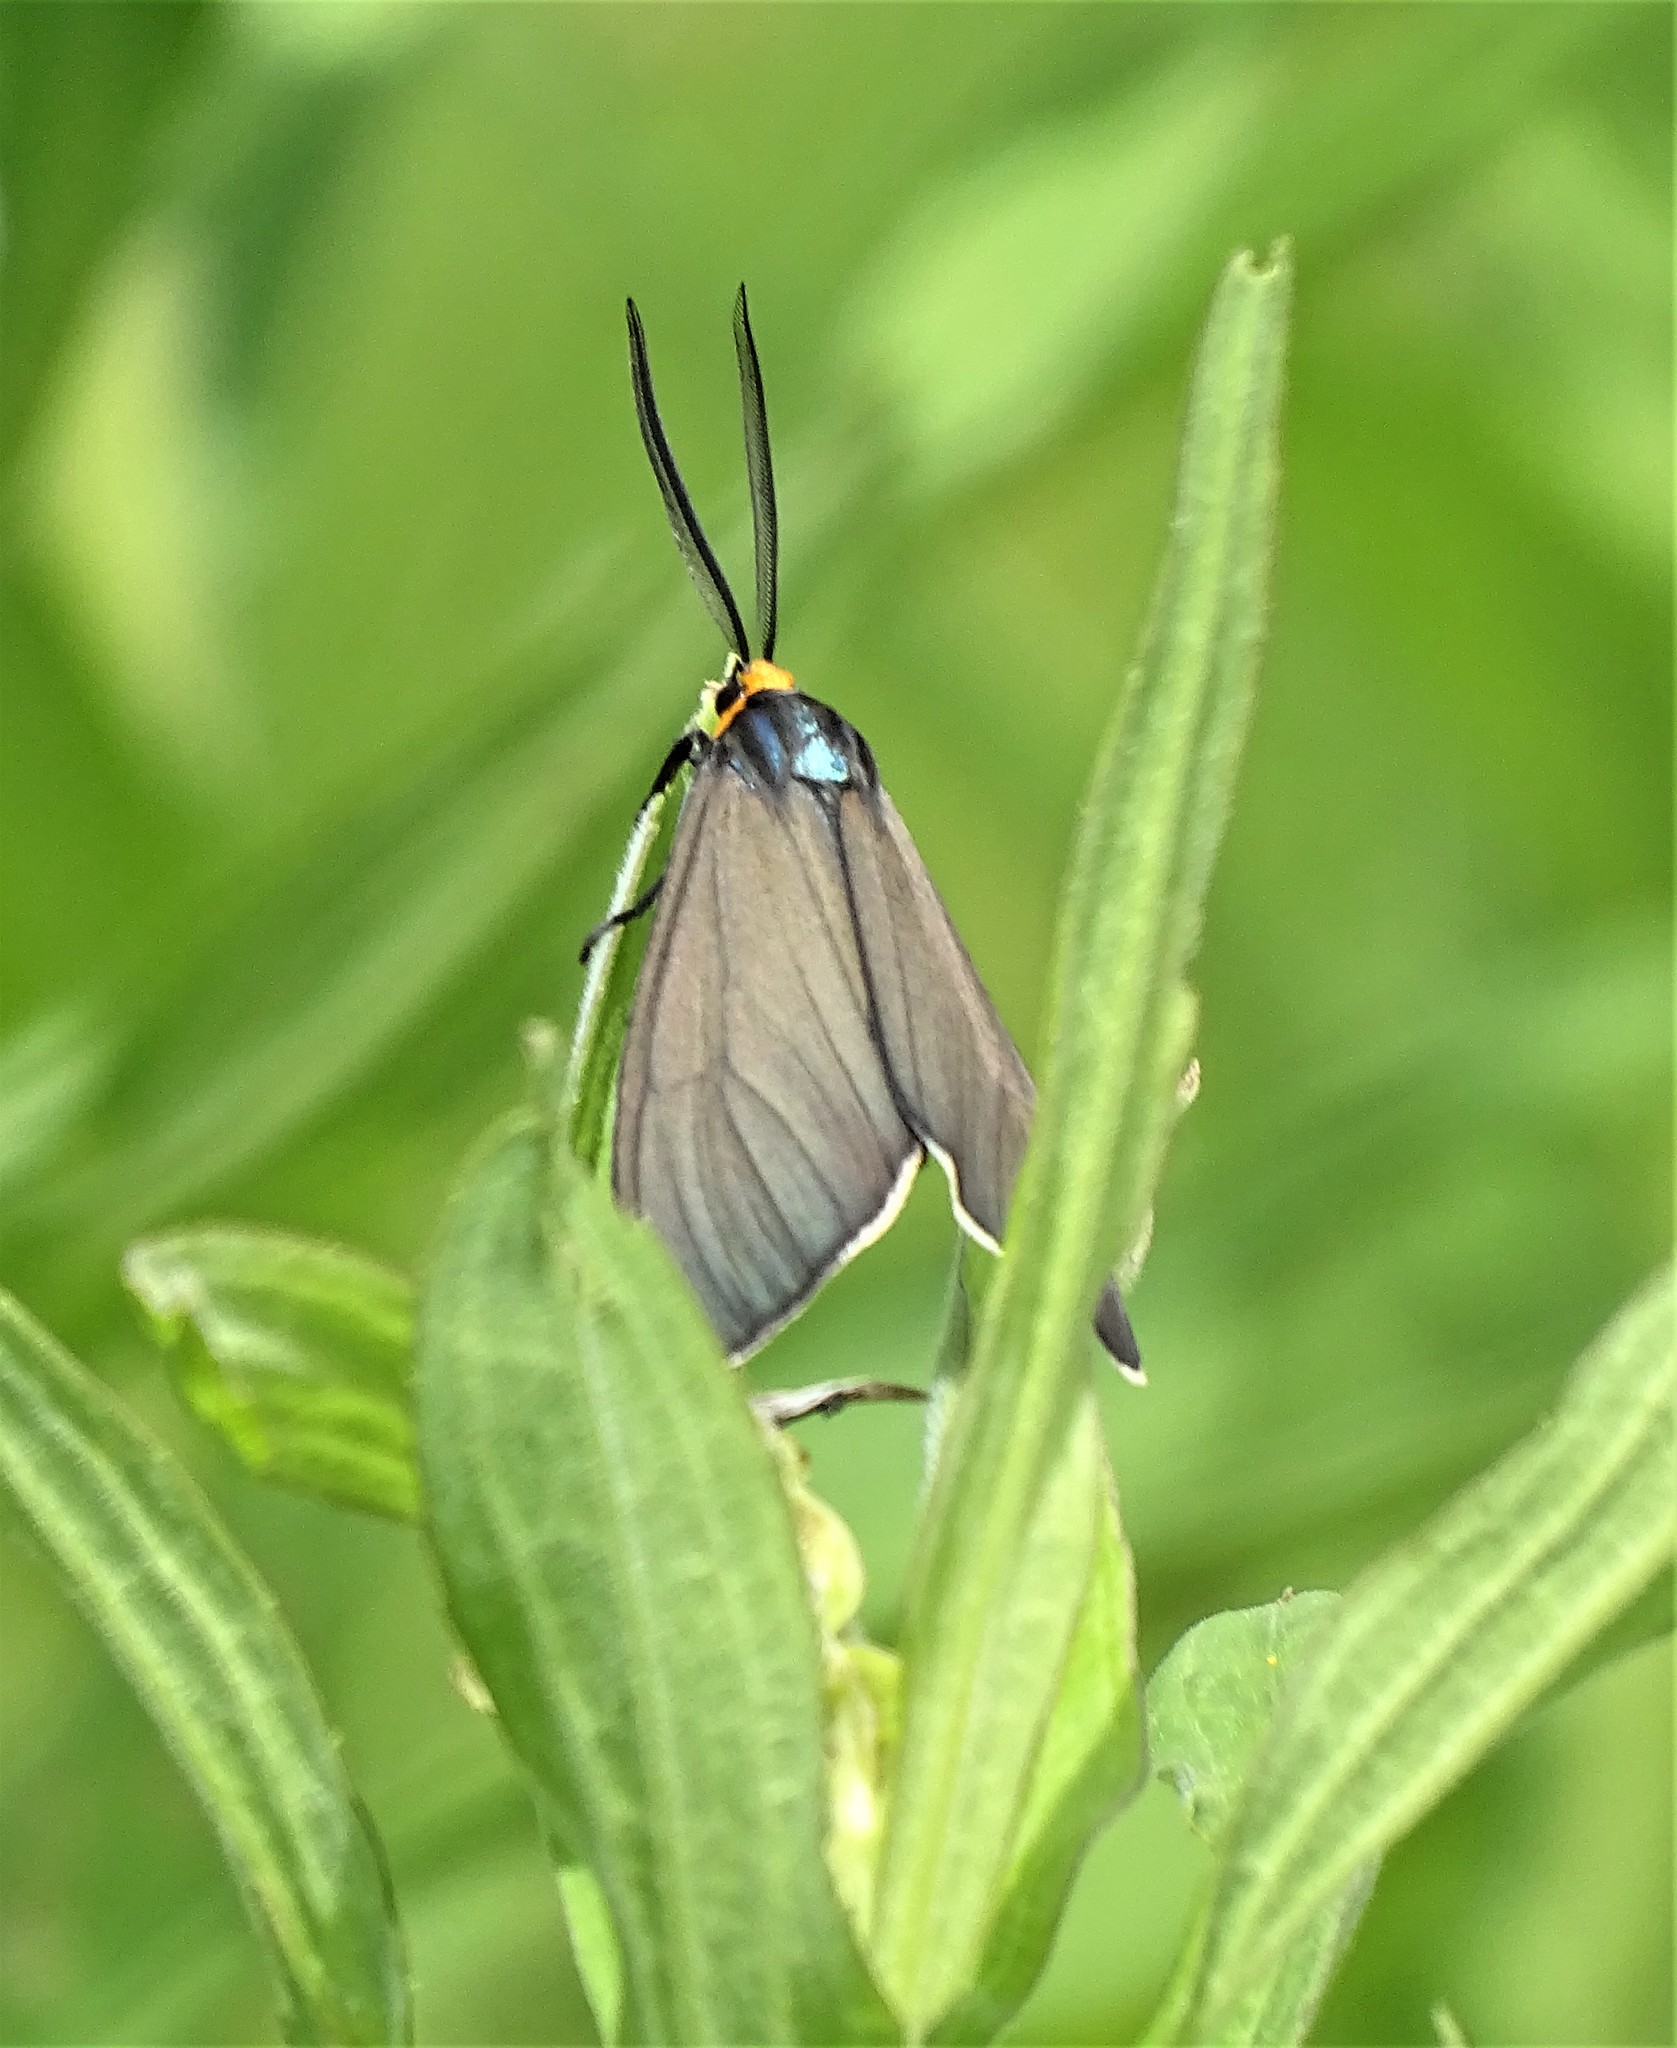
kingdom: Animalia
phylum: Arthropoda
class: Insecta
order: Lepidoptera
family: Erebidae
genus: Ctenucha
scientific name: Ctenucha virginica
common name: Virginia ctenucha moth
